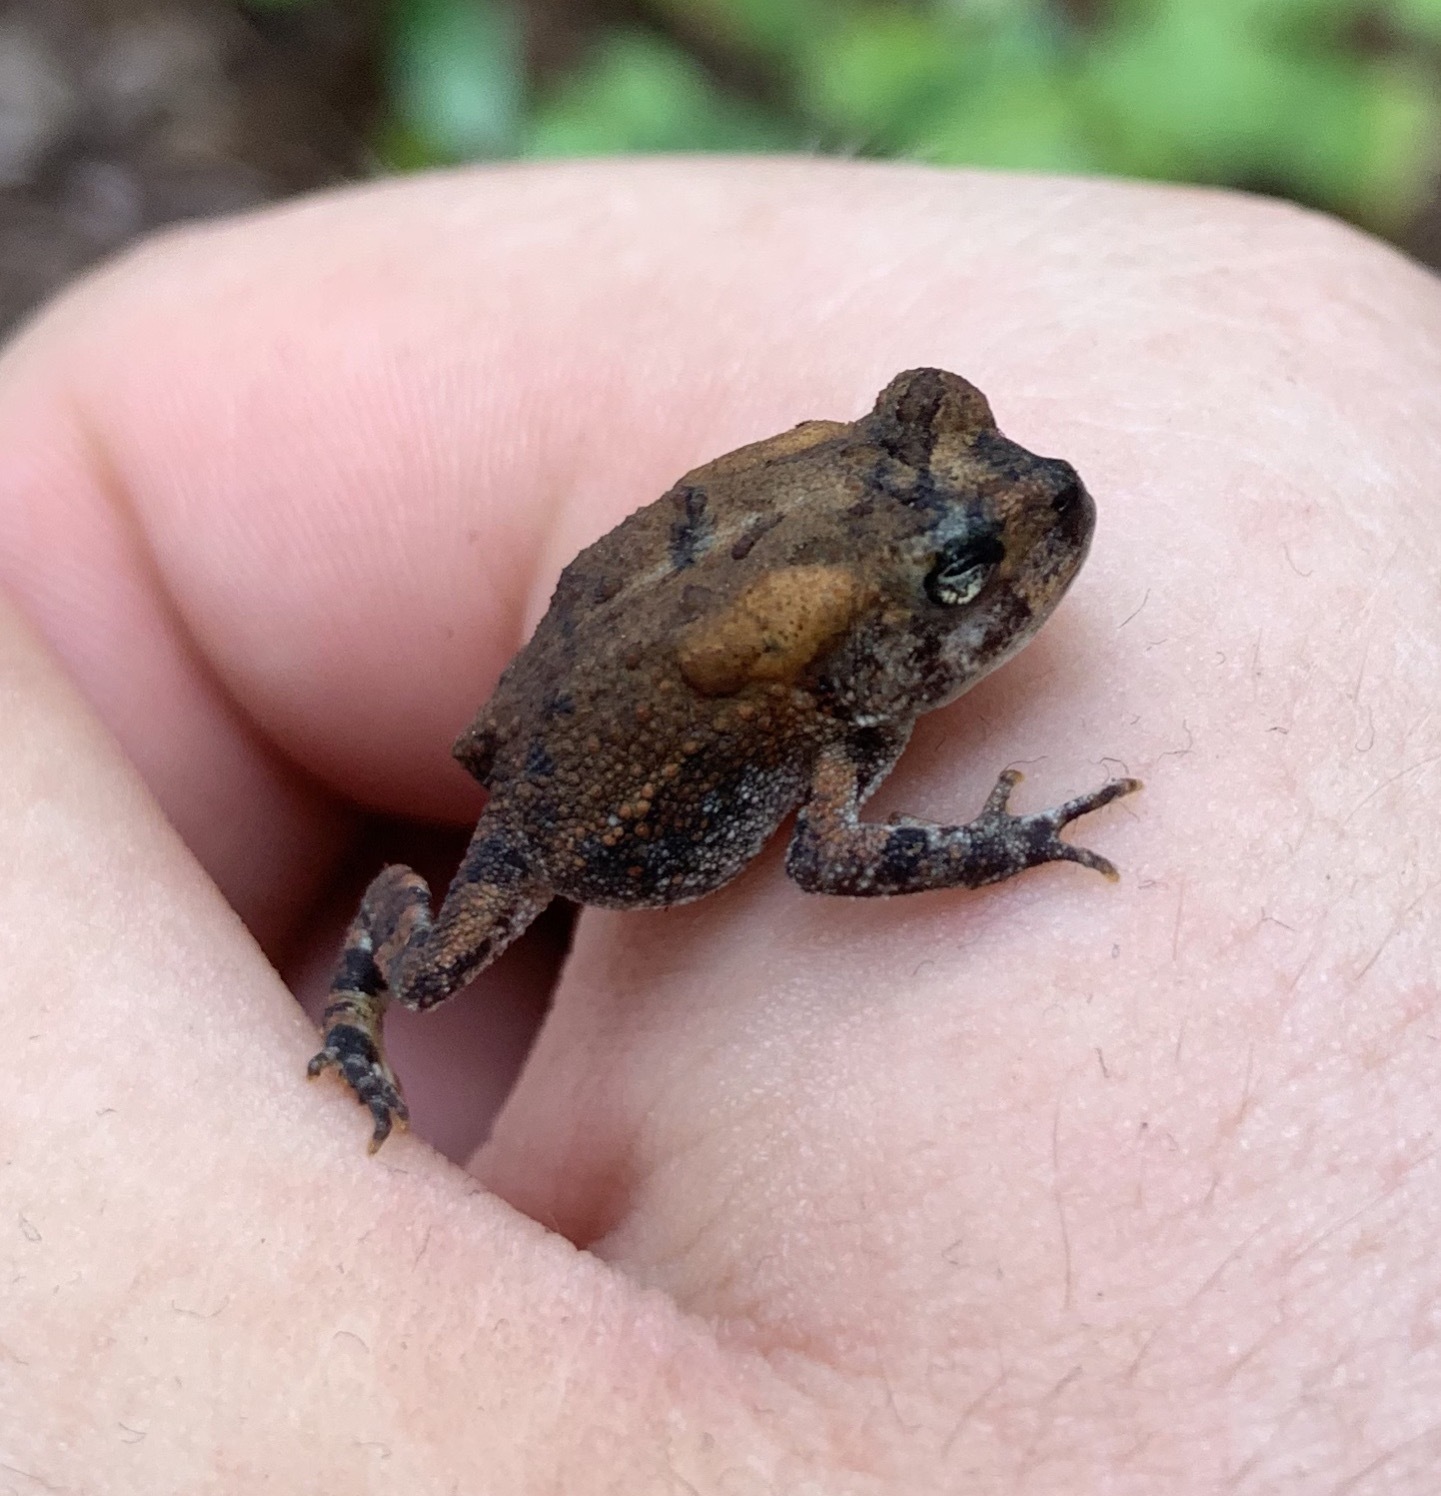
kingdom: Animalia
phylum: Chordata
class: Amphibia
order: Anura
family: Bufonidae
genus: Anaxyrus
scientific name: Anaxyrus terrestris
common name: Southern toad
